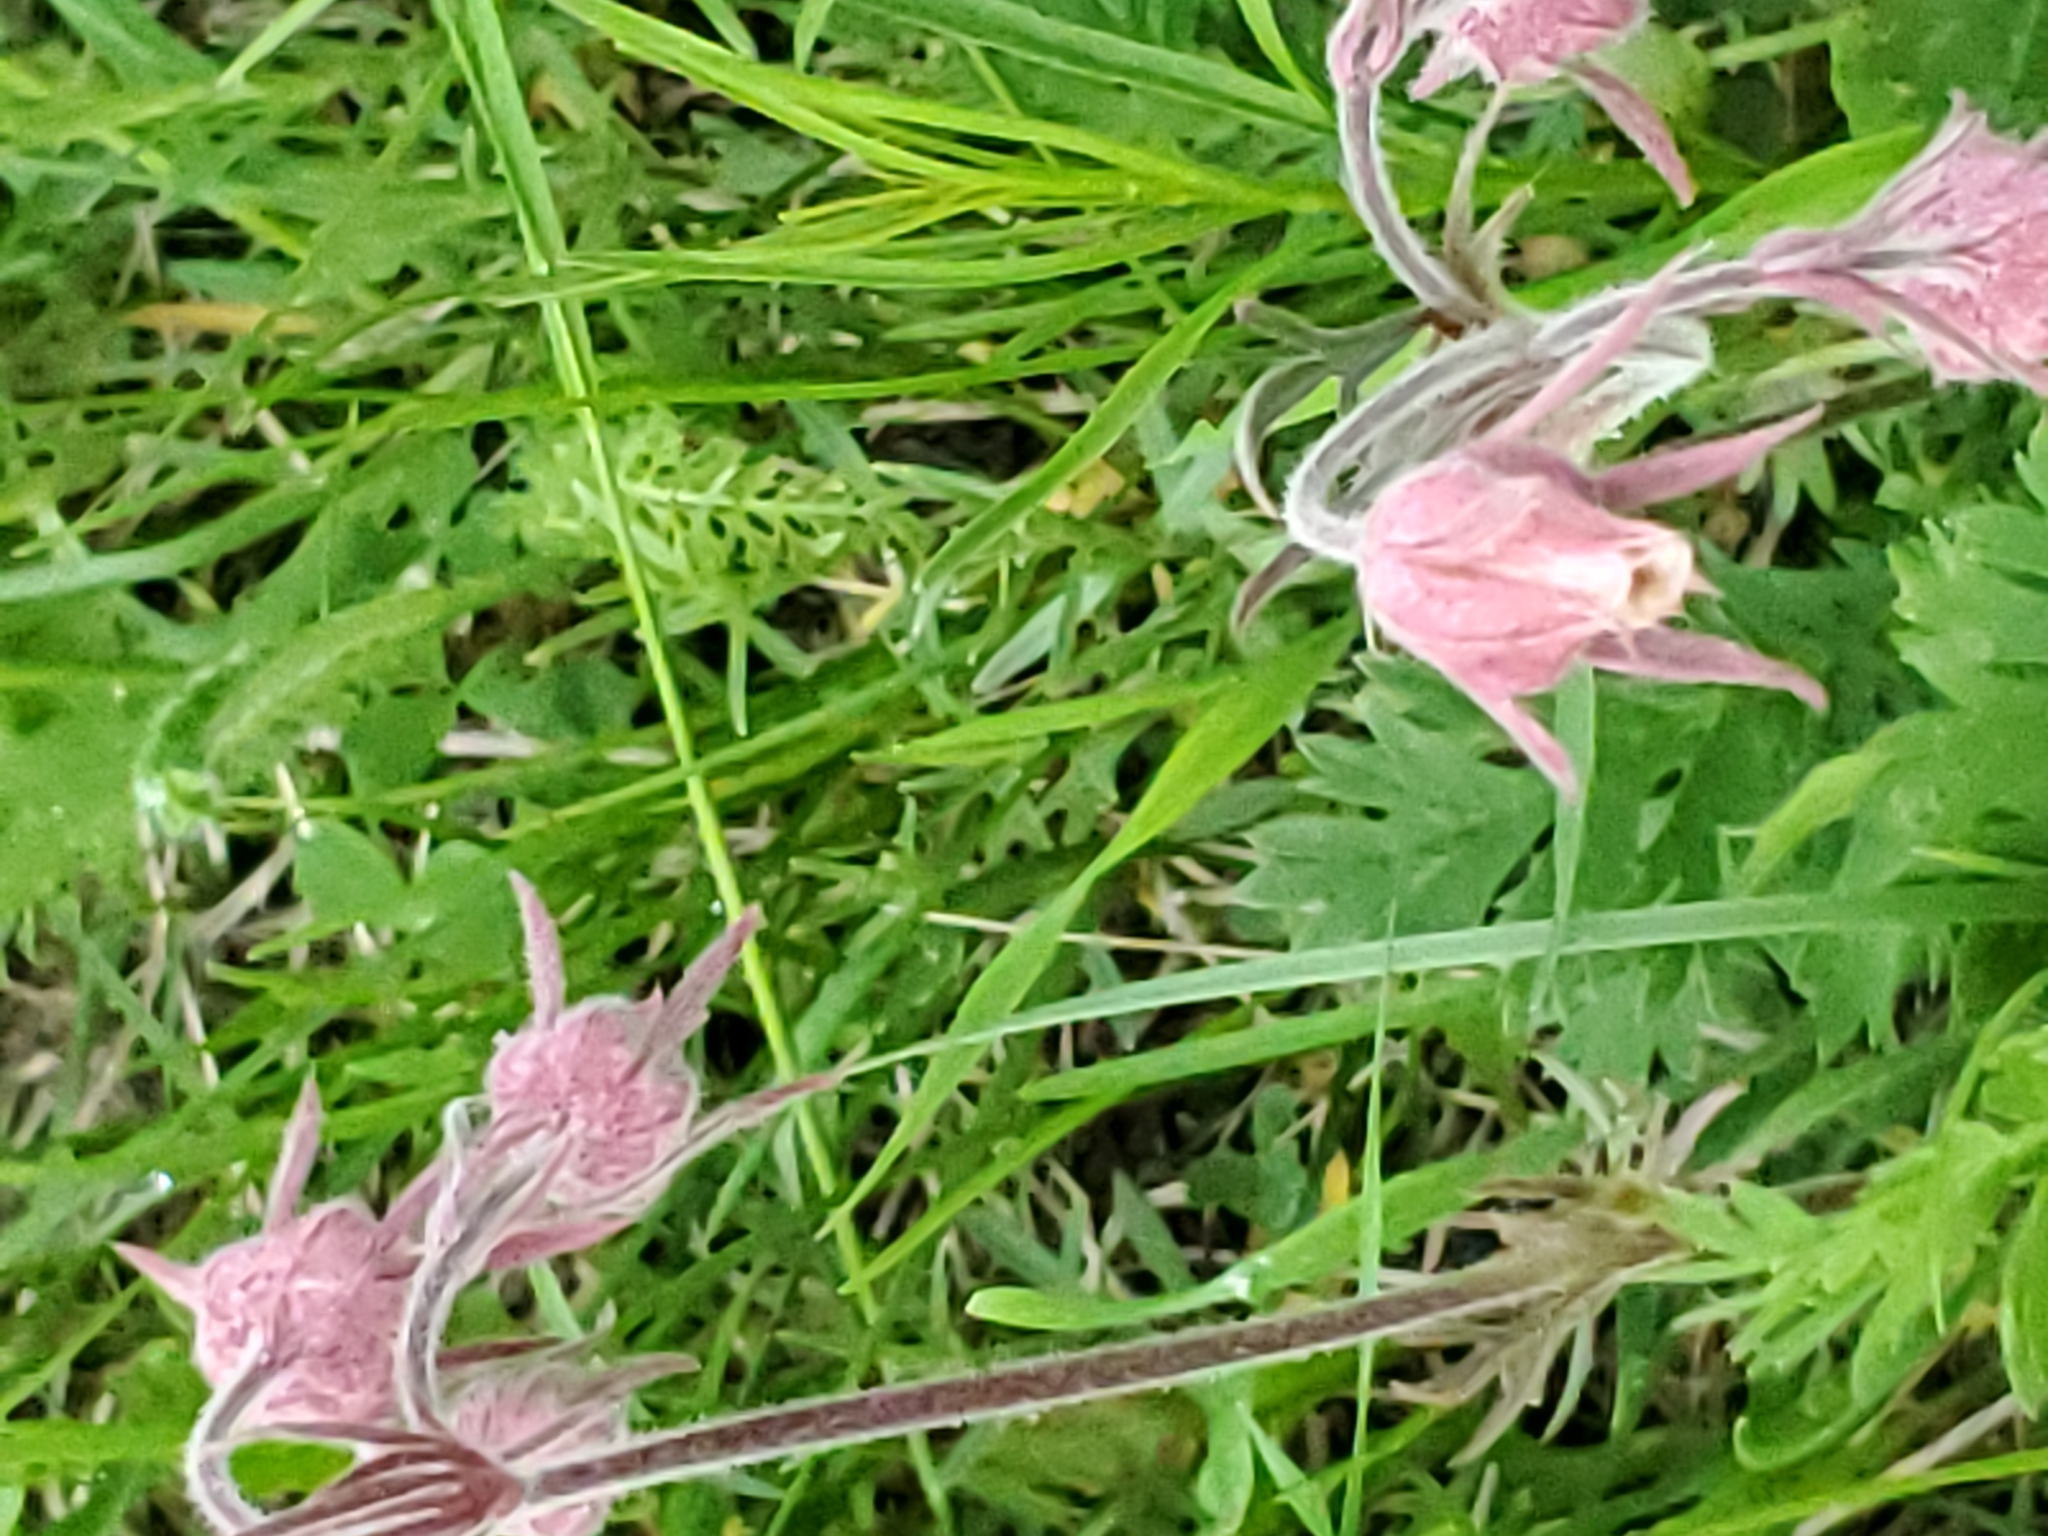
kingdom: Plantae
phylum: Tracheophyta
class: Magnoliopsida
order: Rosales
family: Rosaceae
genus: Geum
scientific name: Geum triflorum
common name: Old man's whiskers
